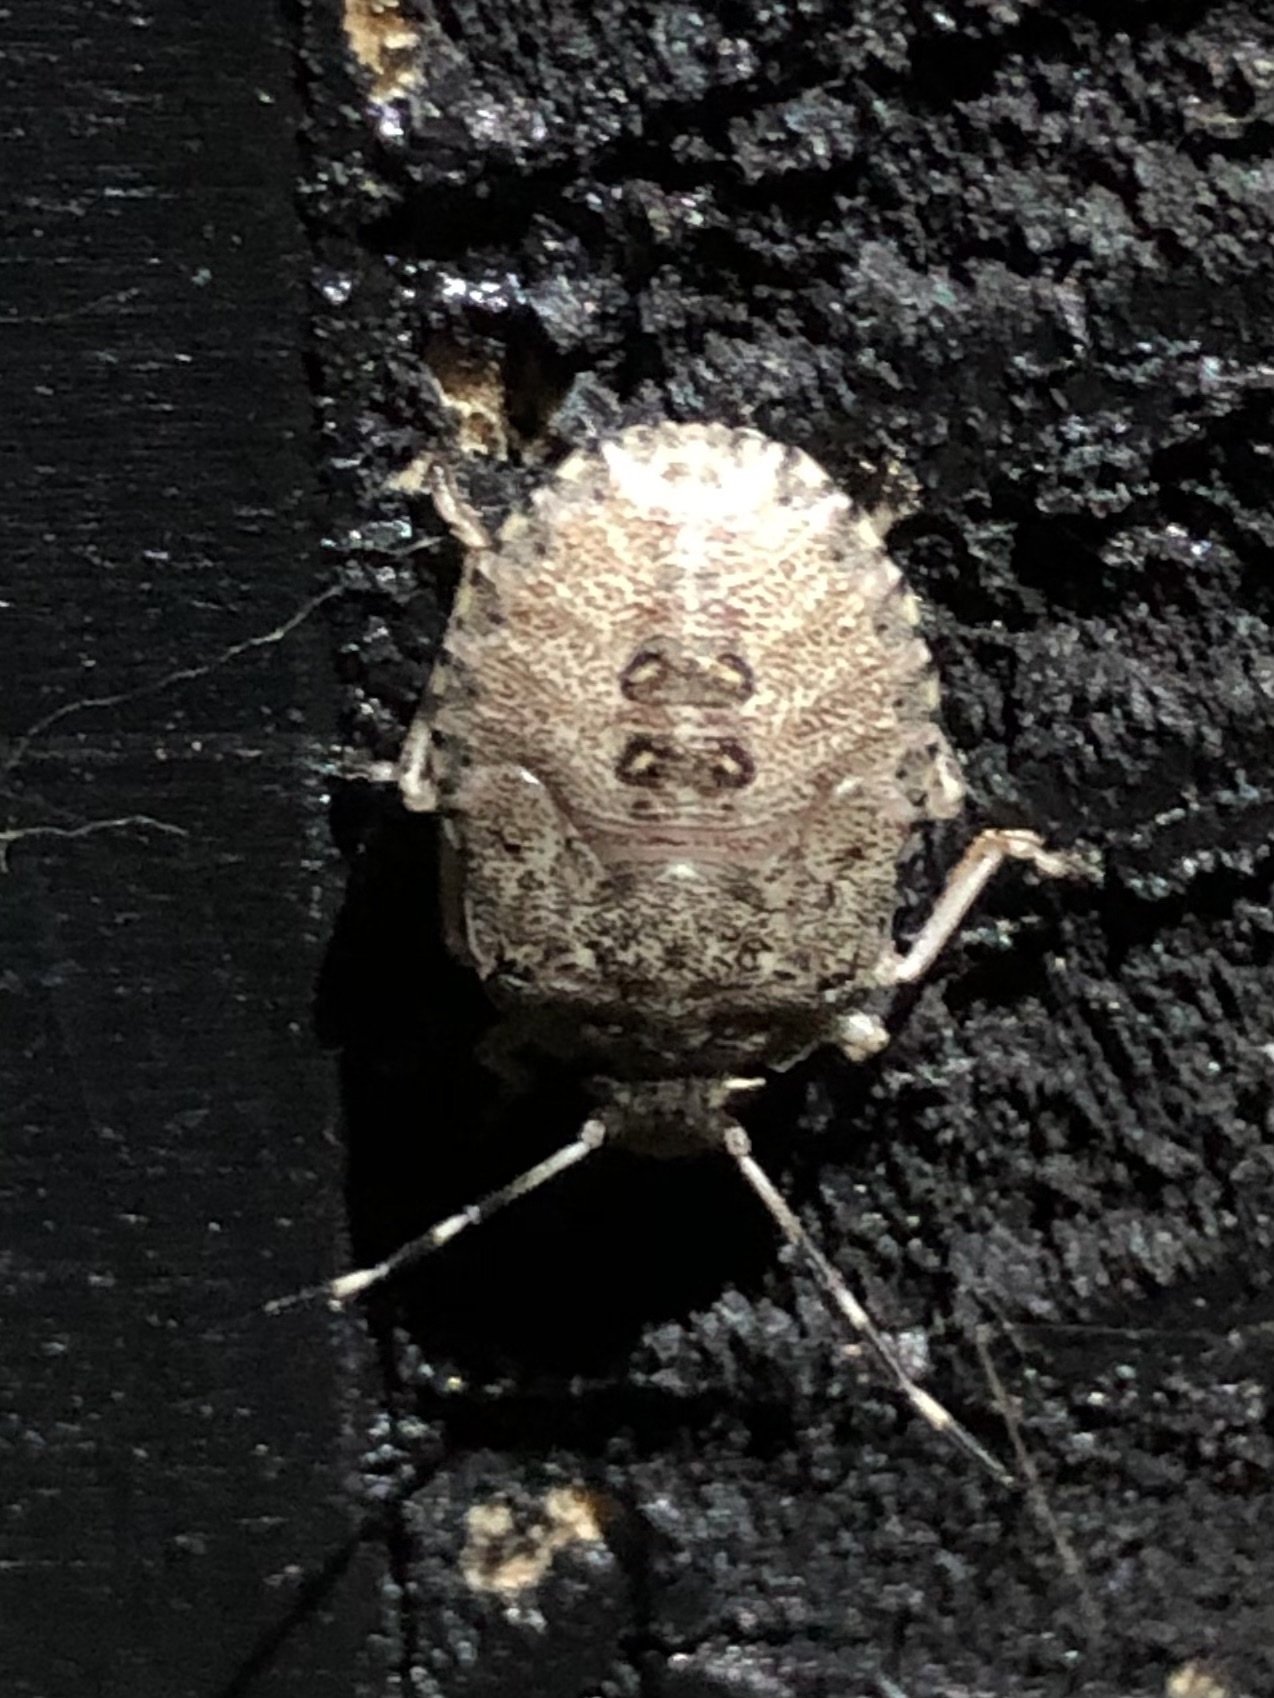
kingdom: Animalia
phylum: Arthropoda
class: Insecta
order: Hemiptera
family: Pentatomidae
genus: Rhaphigaster
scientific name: Rhaphigaster nebulosa
